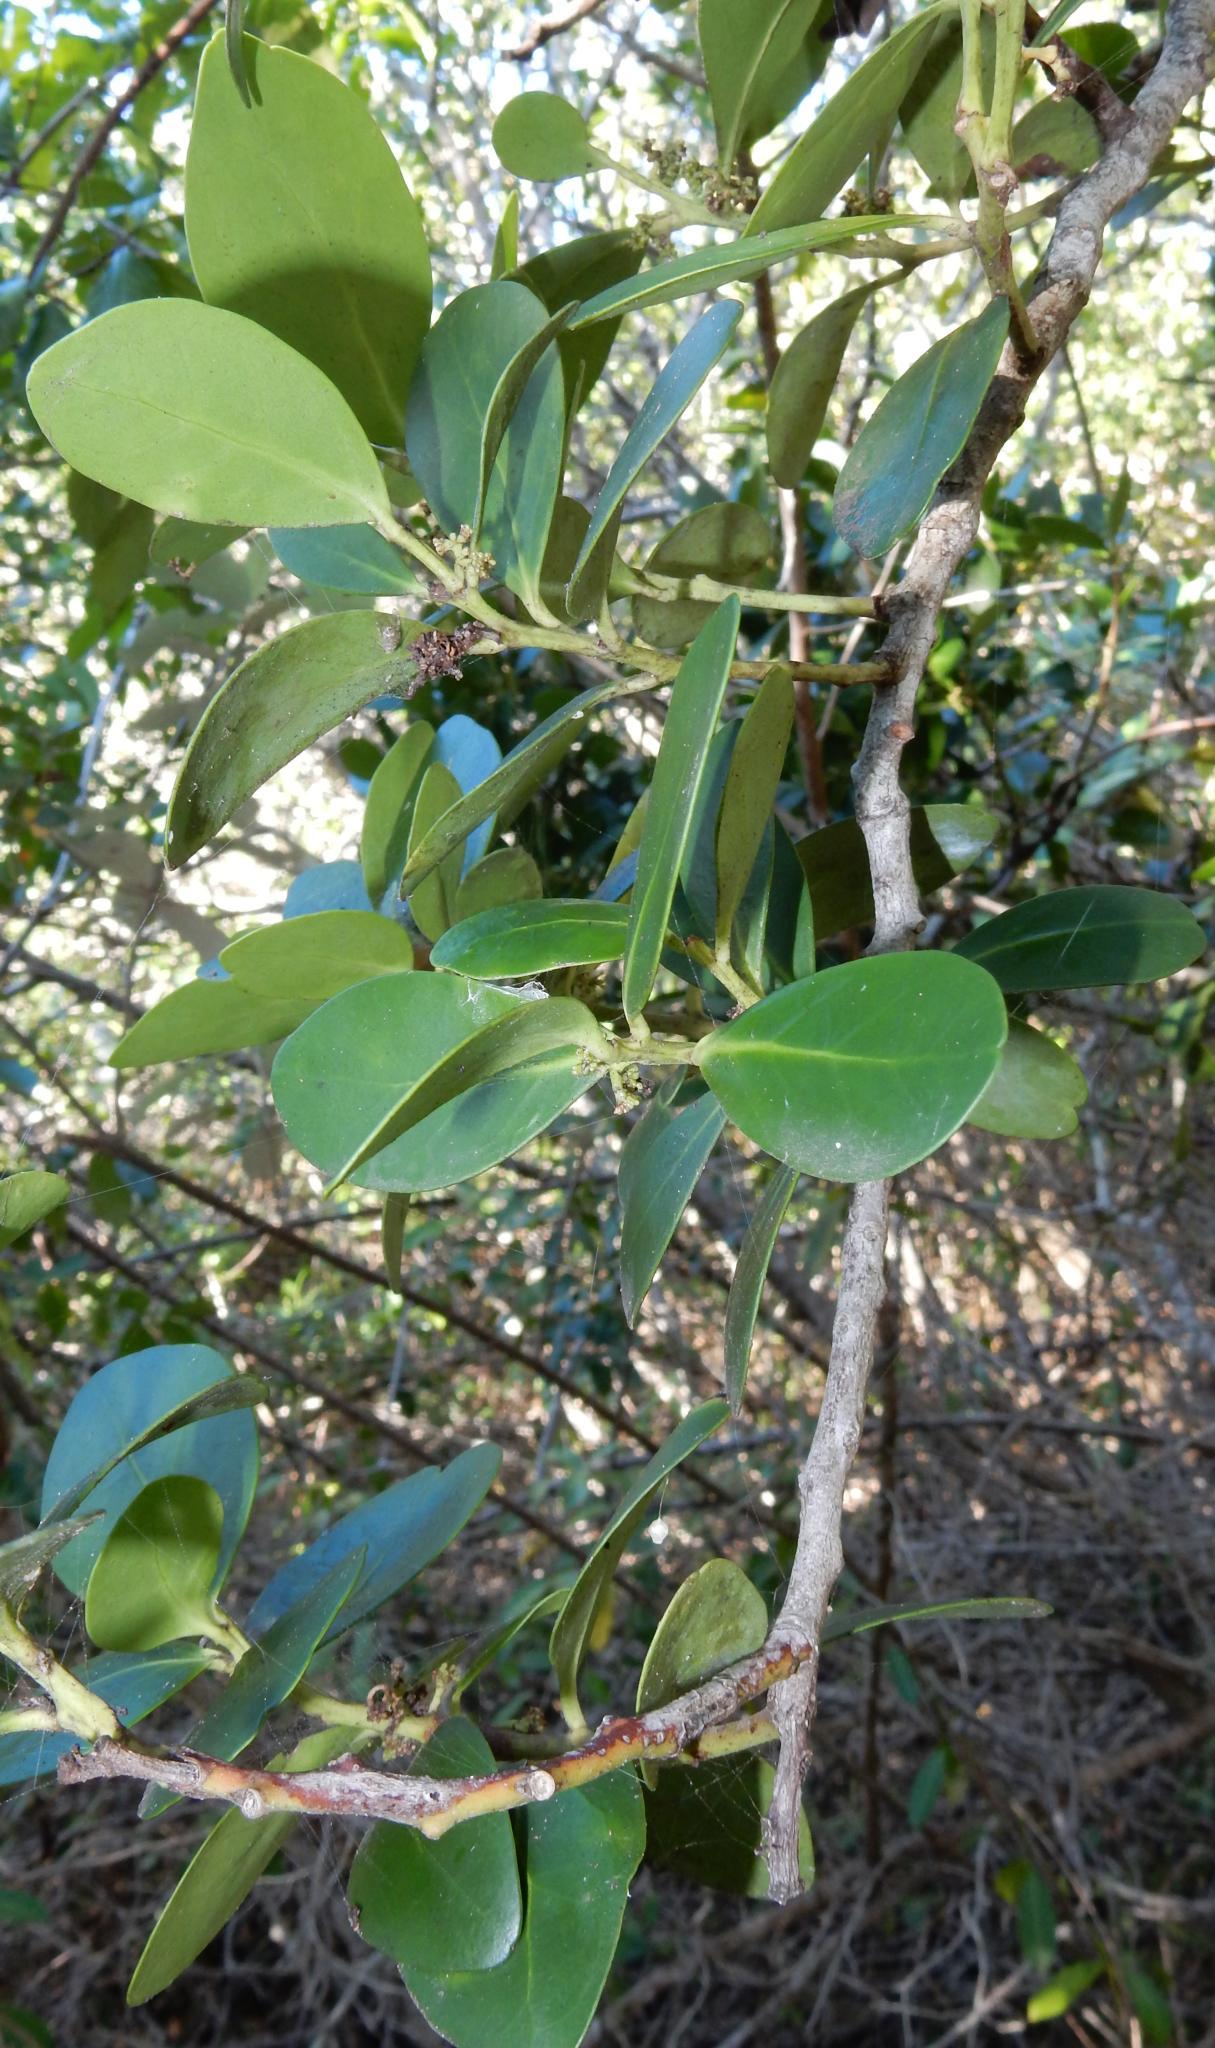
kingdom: Plantae
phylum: Tracheophyta
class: Magnoliopsida
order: Celastrales
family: Celastraceae
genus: Pterocelastrus
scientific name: Pterocelastrus tricuspidatus
